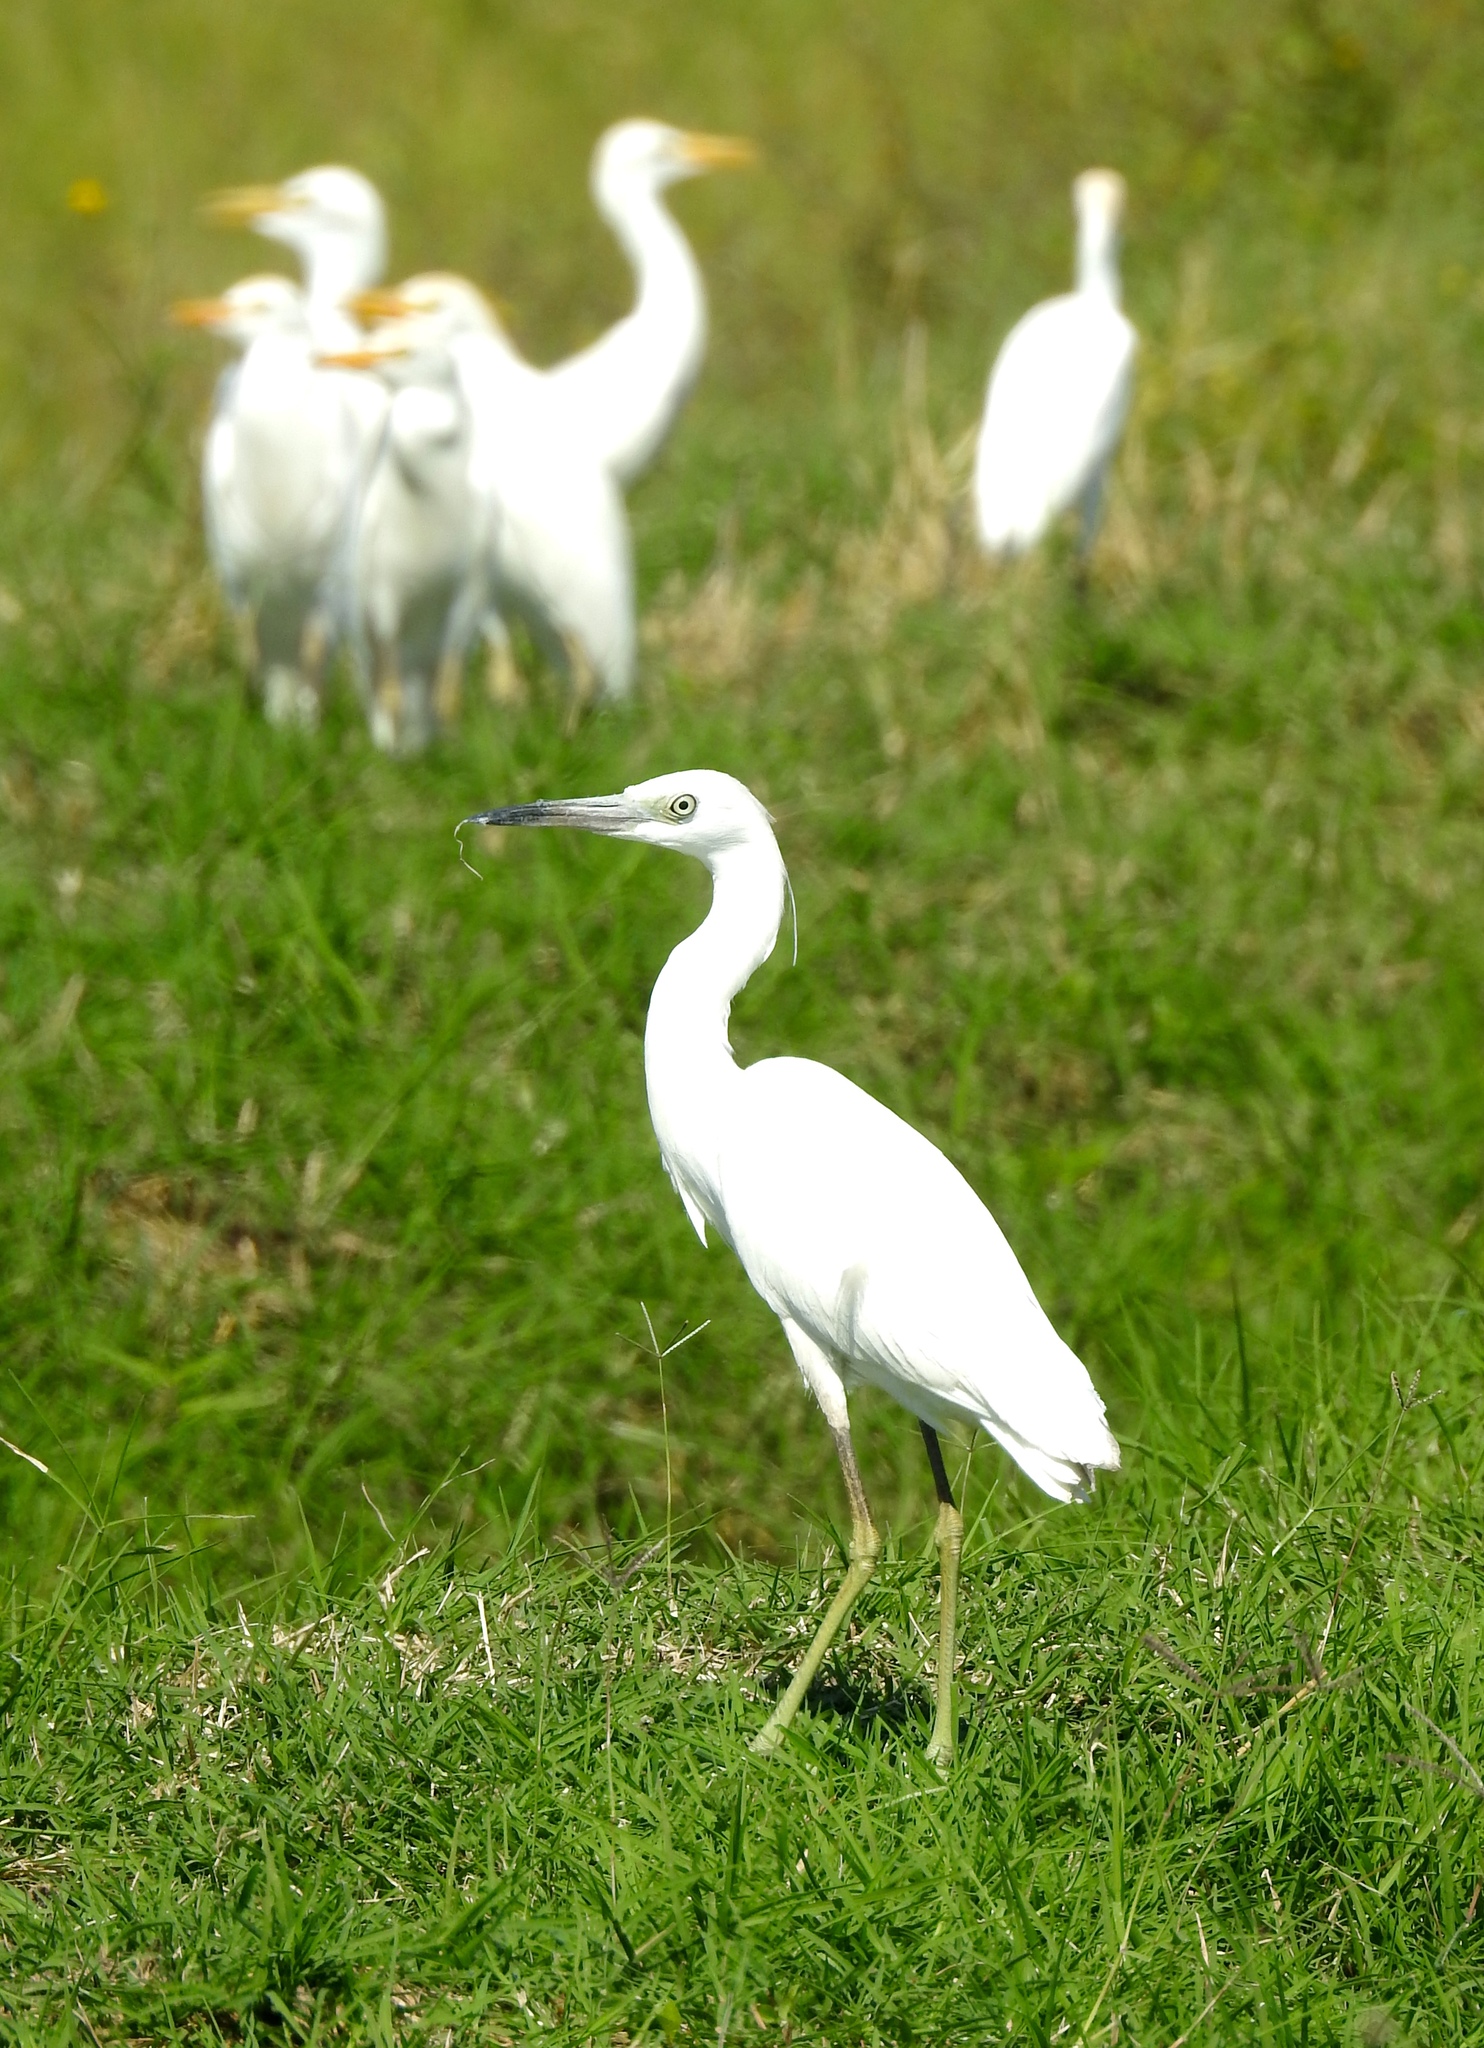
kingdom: Animalia
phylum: Chordata
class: Aves
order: Pelecaniformes
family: Ardeidae
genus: Egretta
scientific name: Egretta caerulea
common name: Little blue heron
